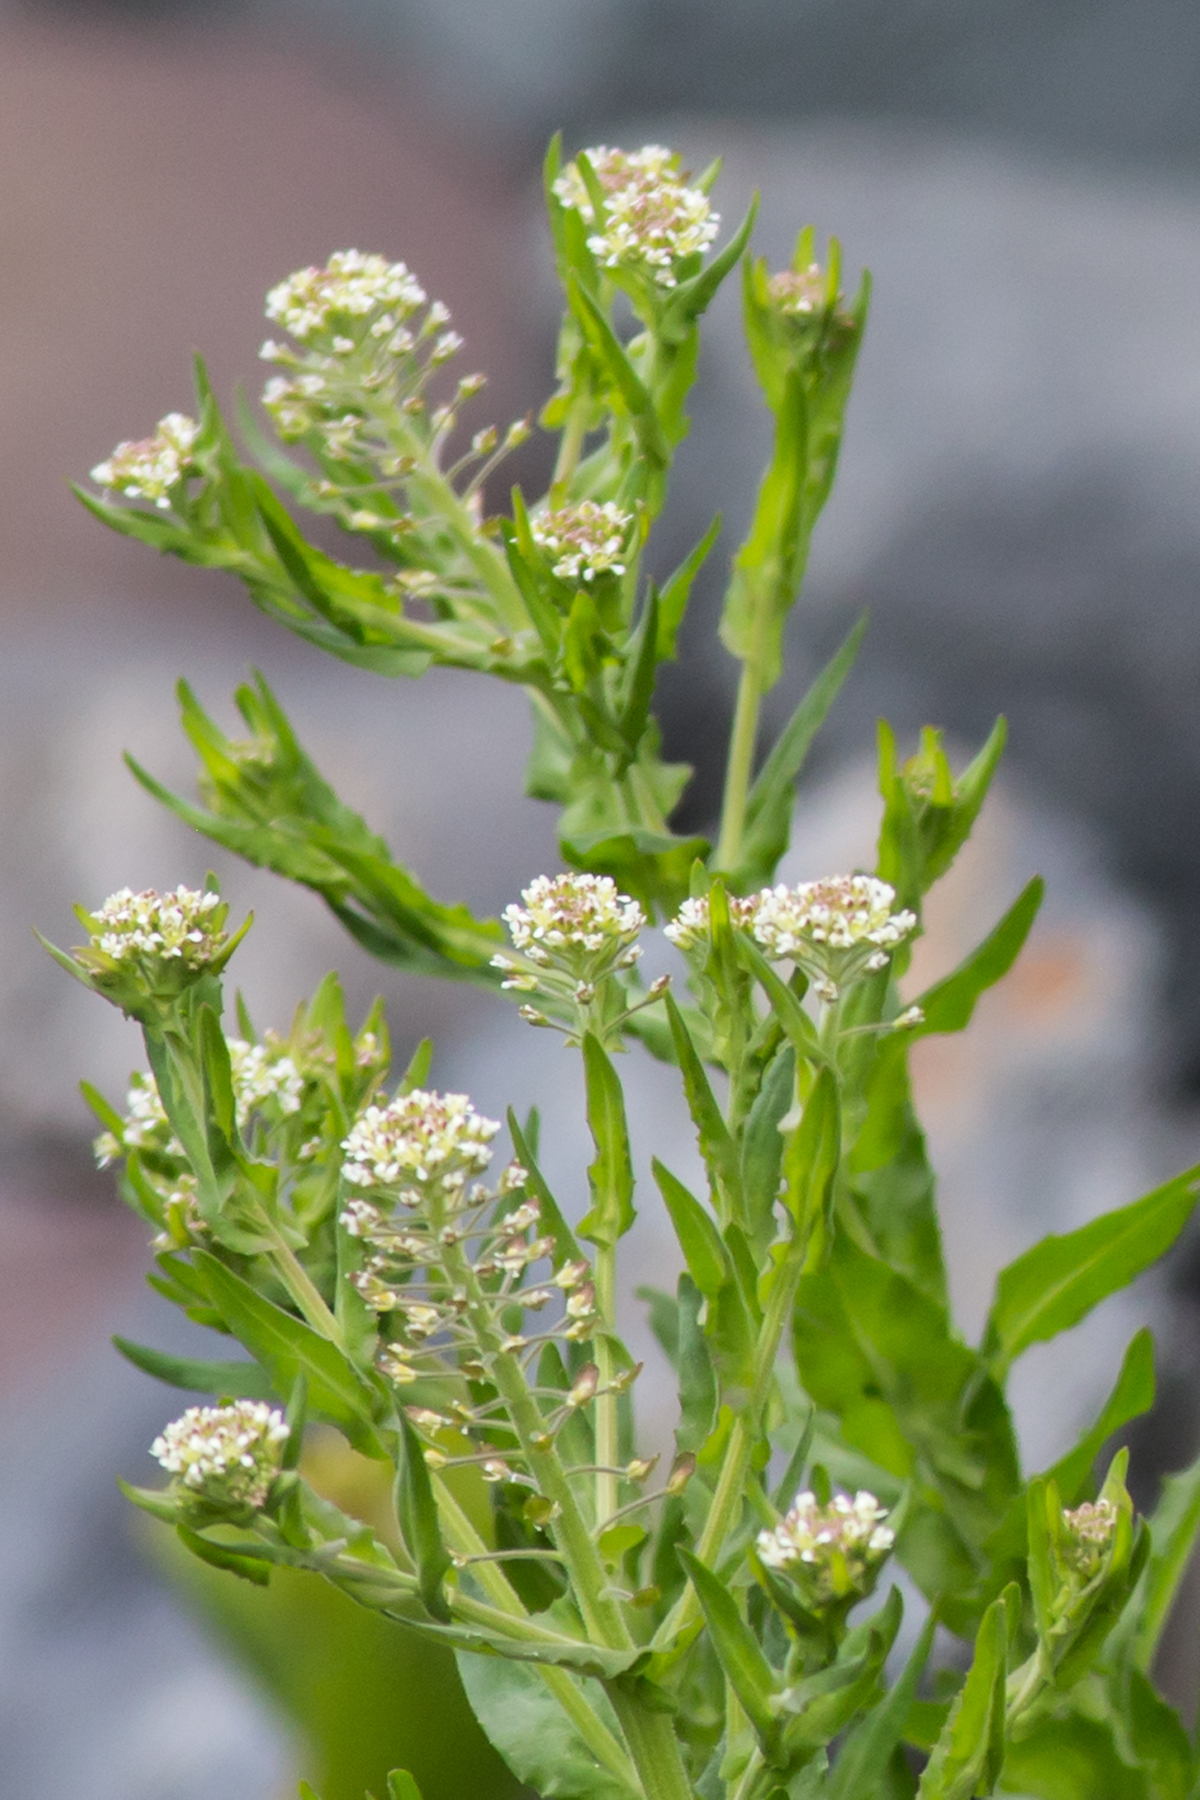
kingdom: Plantae
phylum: Tracheophyta
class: Magnoliopsida
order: Brassicales
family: Brassicaceae
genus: Lepidium
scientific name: Lepidium campestre
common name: Field pepperwort
